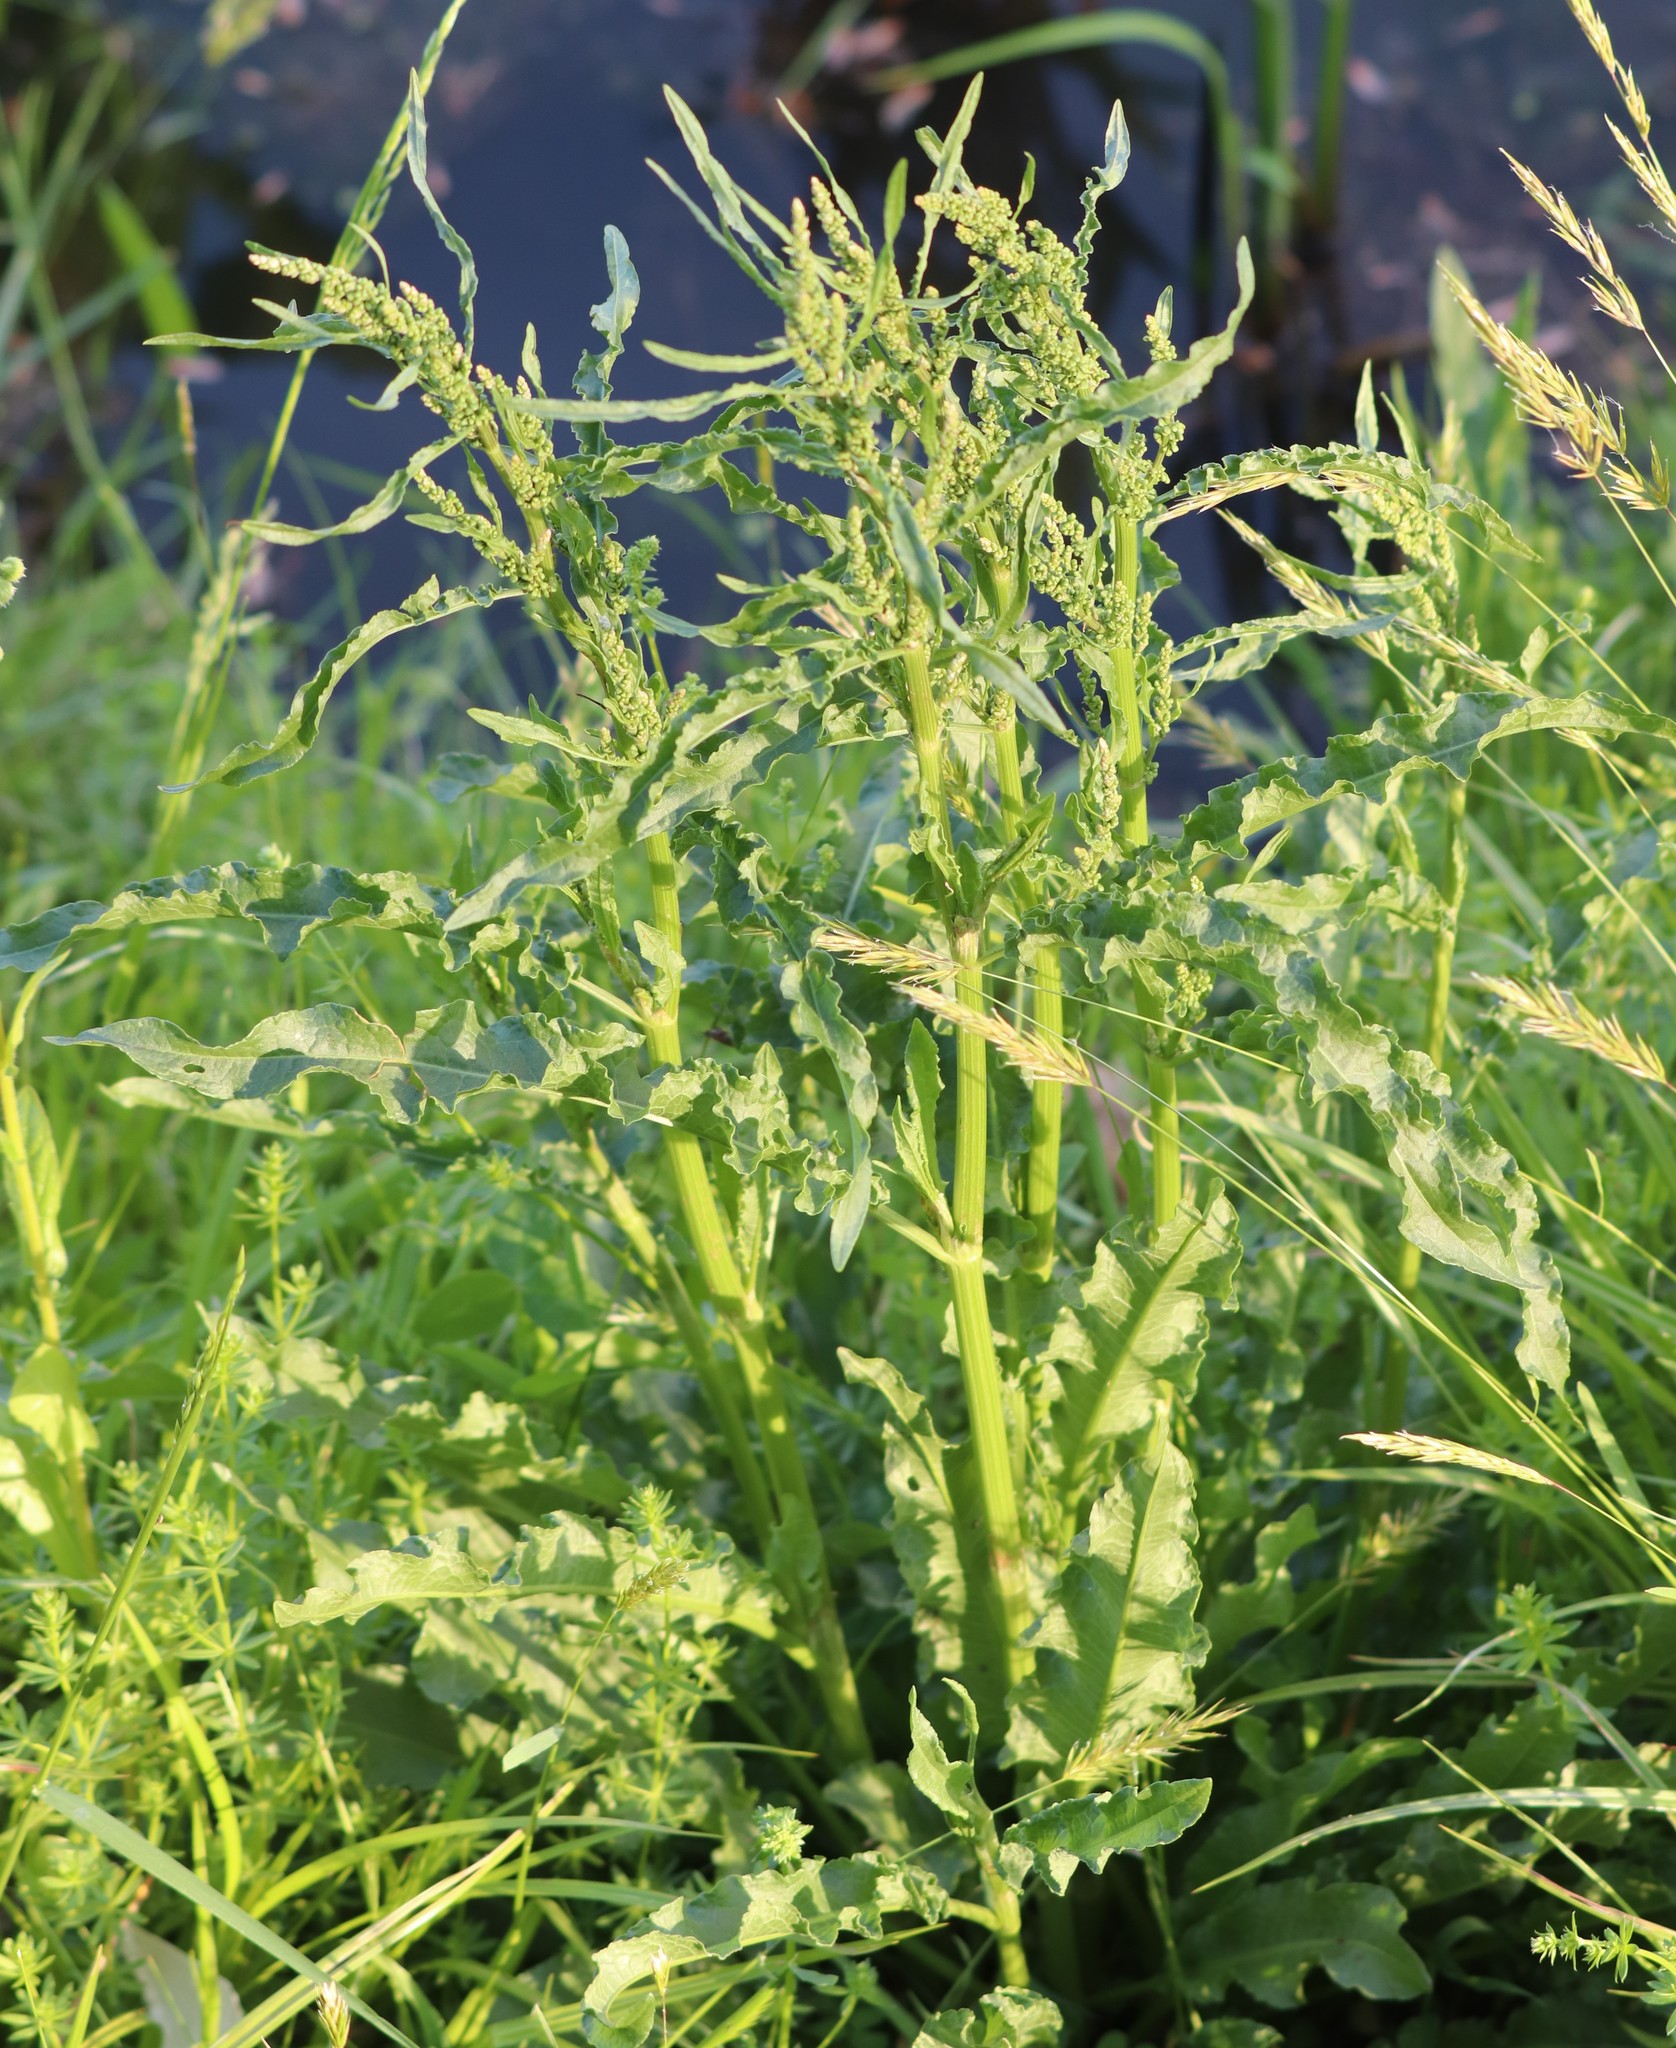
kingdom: Plantae
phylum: Tracheophyta
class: Magnoliopsida
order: Caryophyllales
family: Polygonaceae
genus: Rumex
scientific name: Rumex crispus
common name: Curled dock
